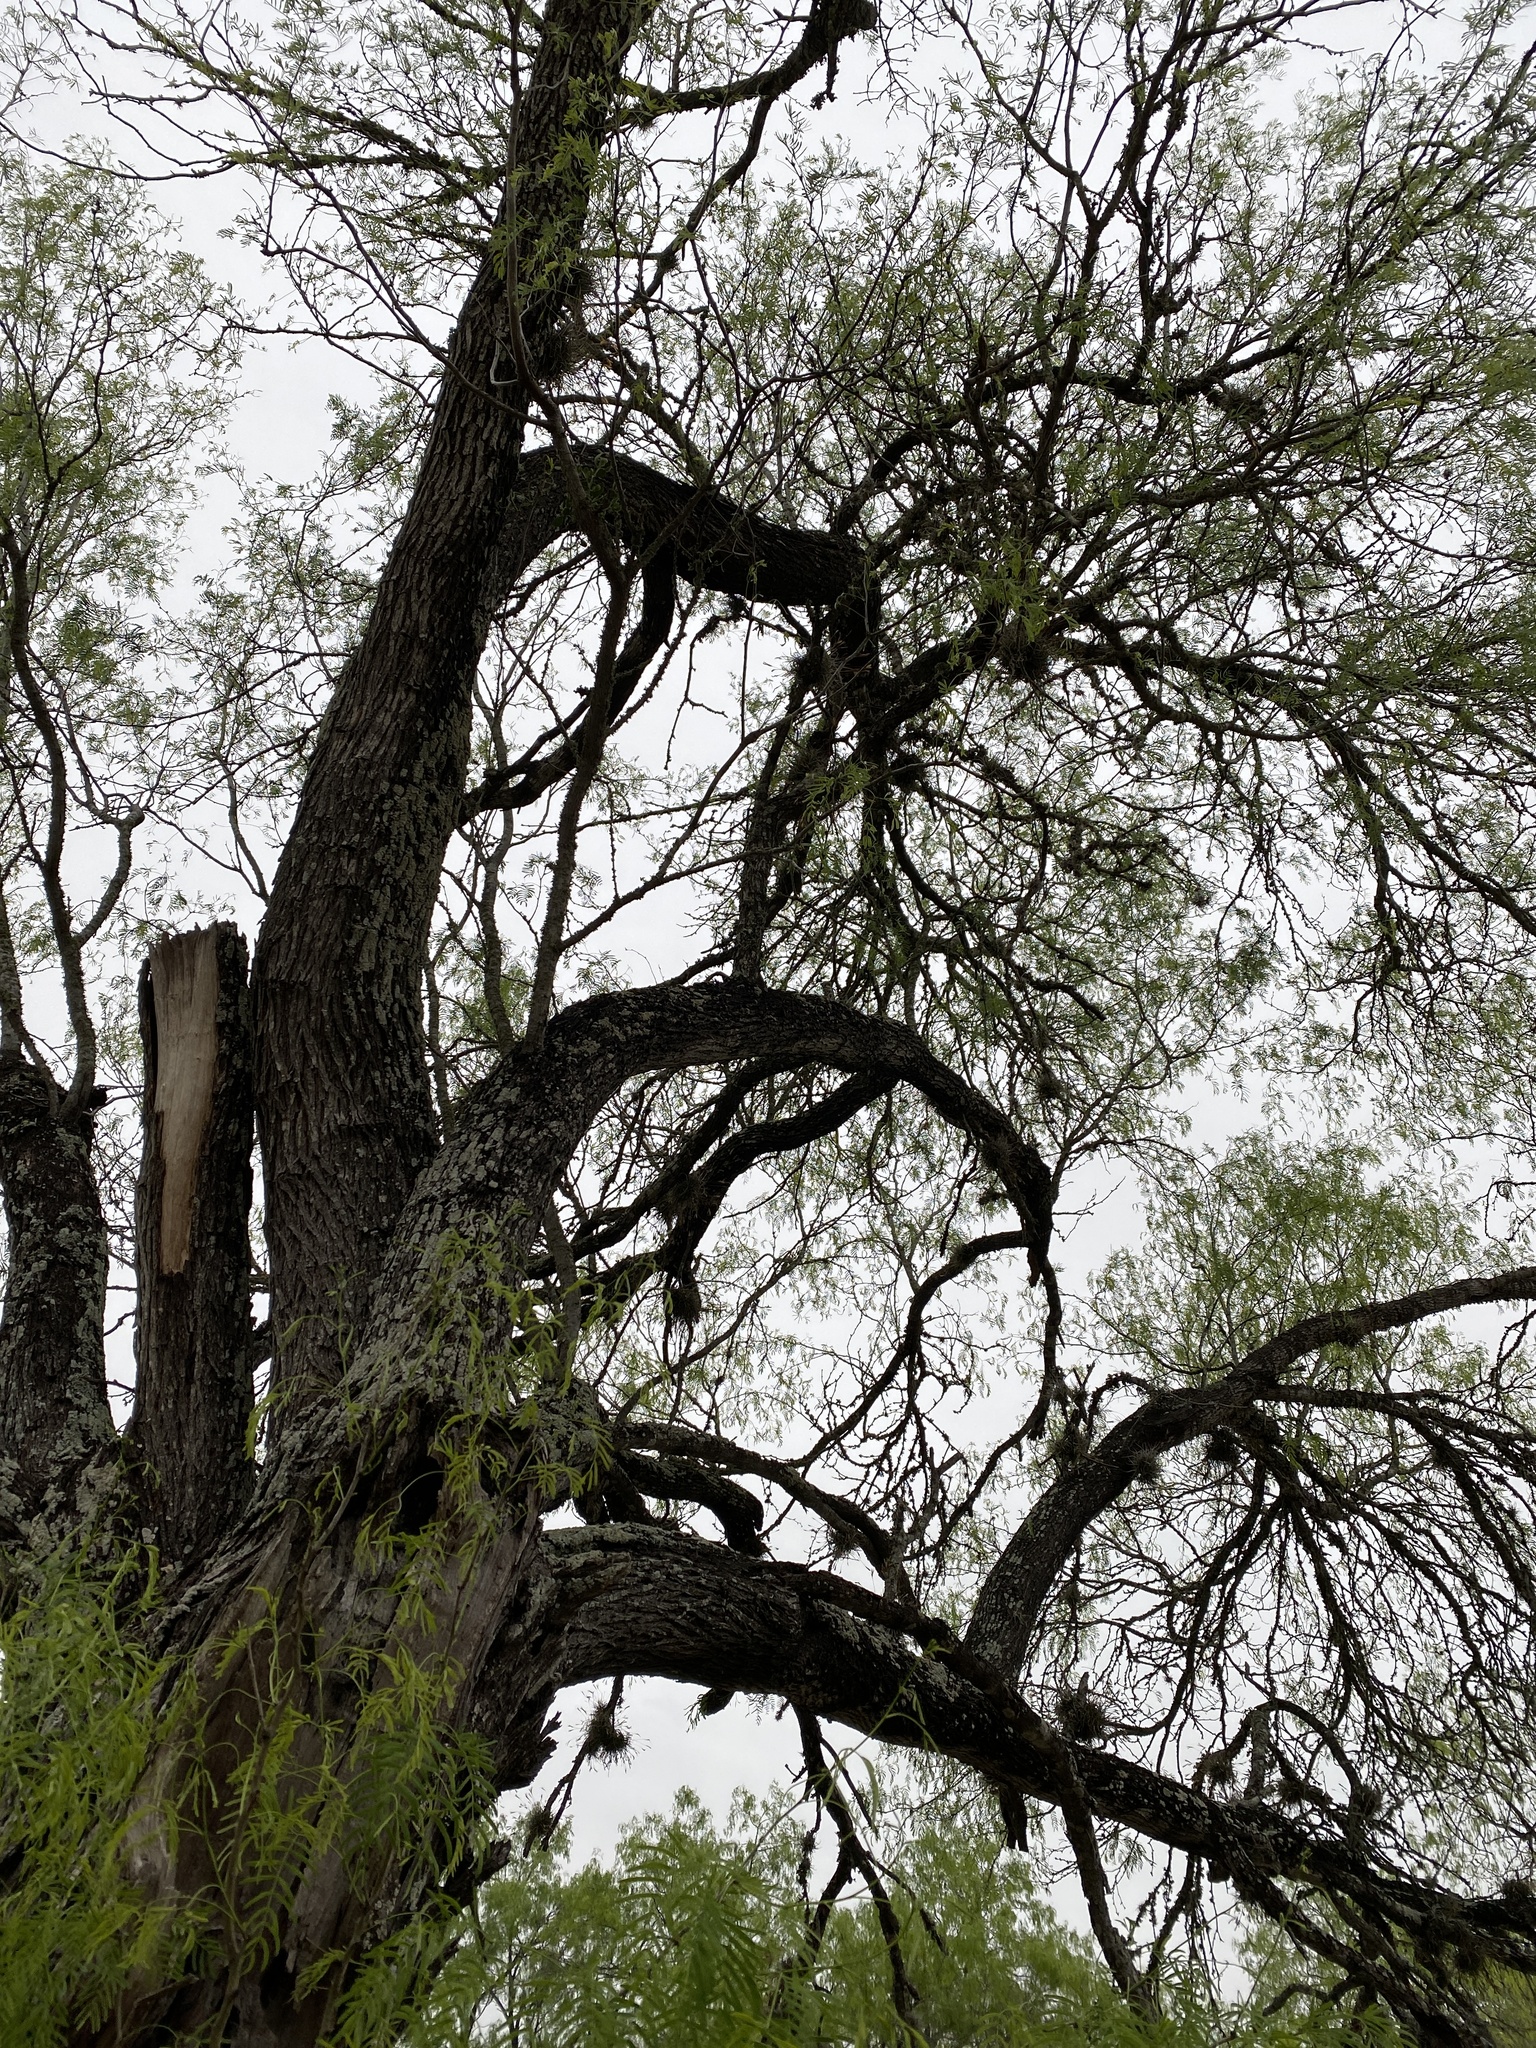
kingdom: Plantae
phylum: Tracheophyta
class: Magnoliopsida
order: Fabales
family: Fabaceae
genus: Prosopis
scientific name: Prosopis glandulosa
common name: Honey mesquite
